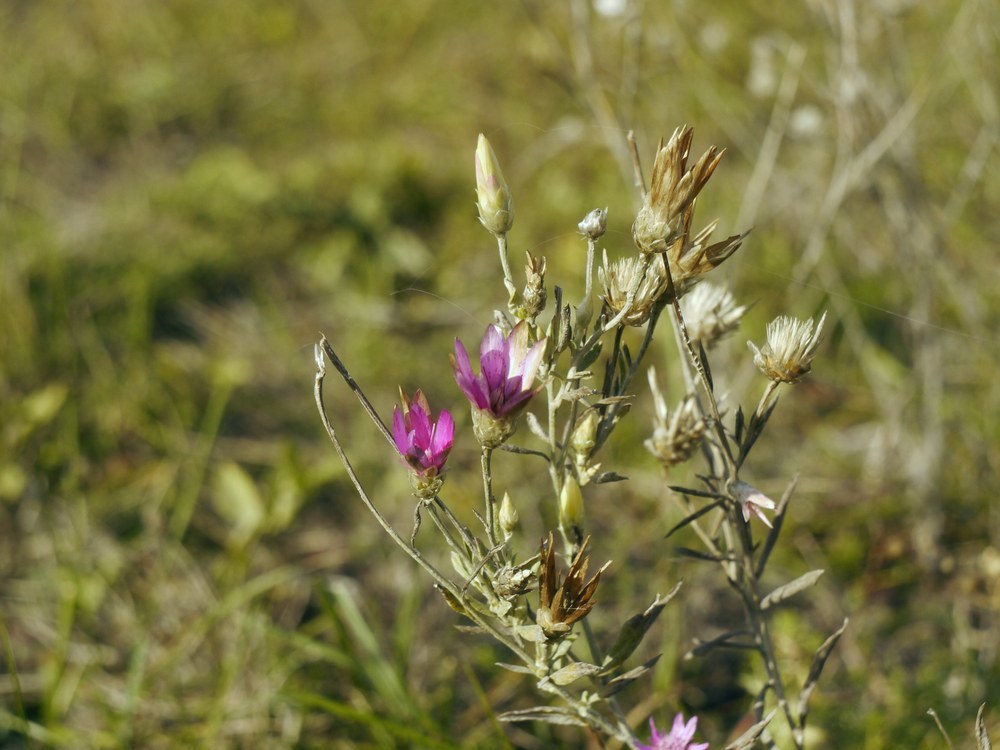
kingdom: Plantae
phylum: Tracheophyta
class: Magnoliopsida
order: Asterales
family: Asteraceae
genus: Xeranthemum
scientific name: Xeranthemum annuum
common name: Immortelle
